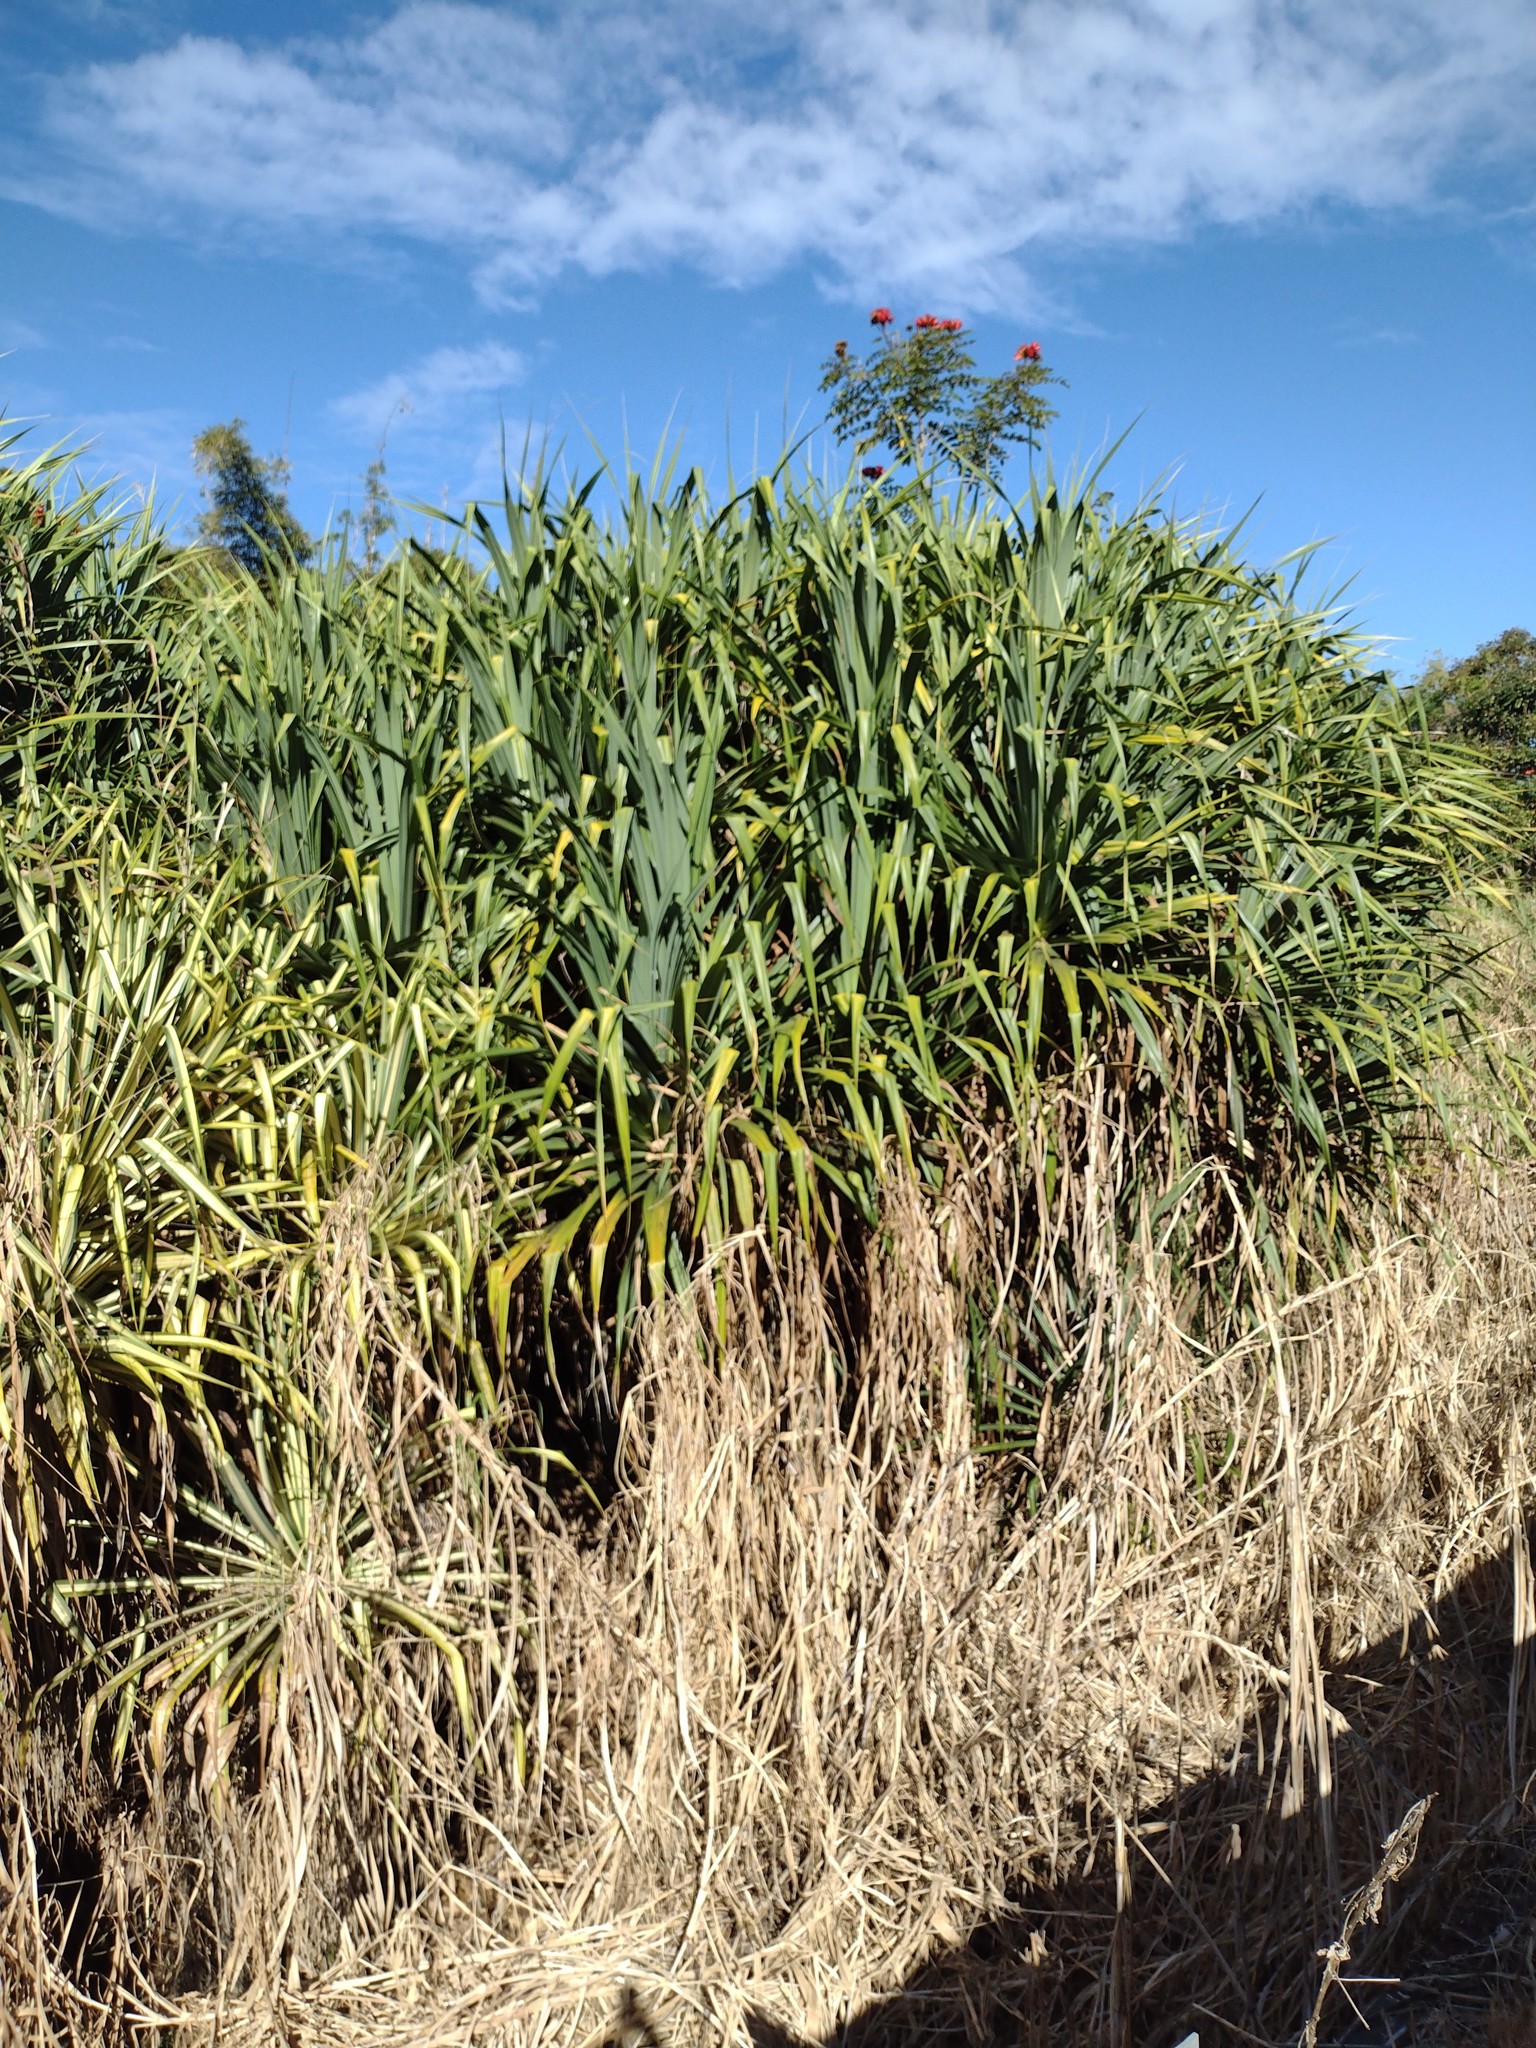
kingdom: Plantae
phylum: Tracheophyta
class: Liliopsida
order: Pandanales
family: Pandanaceae
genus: Pandanus
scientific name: Pandanus tectorius
